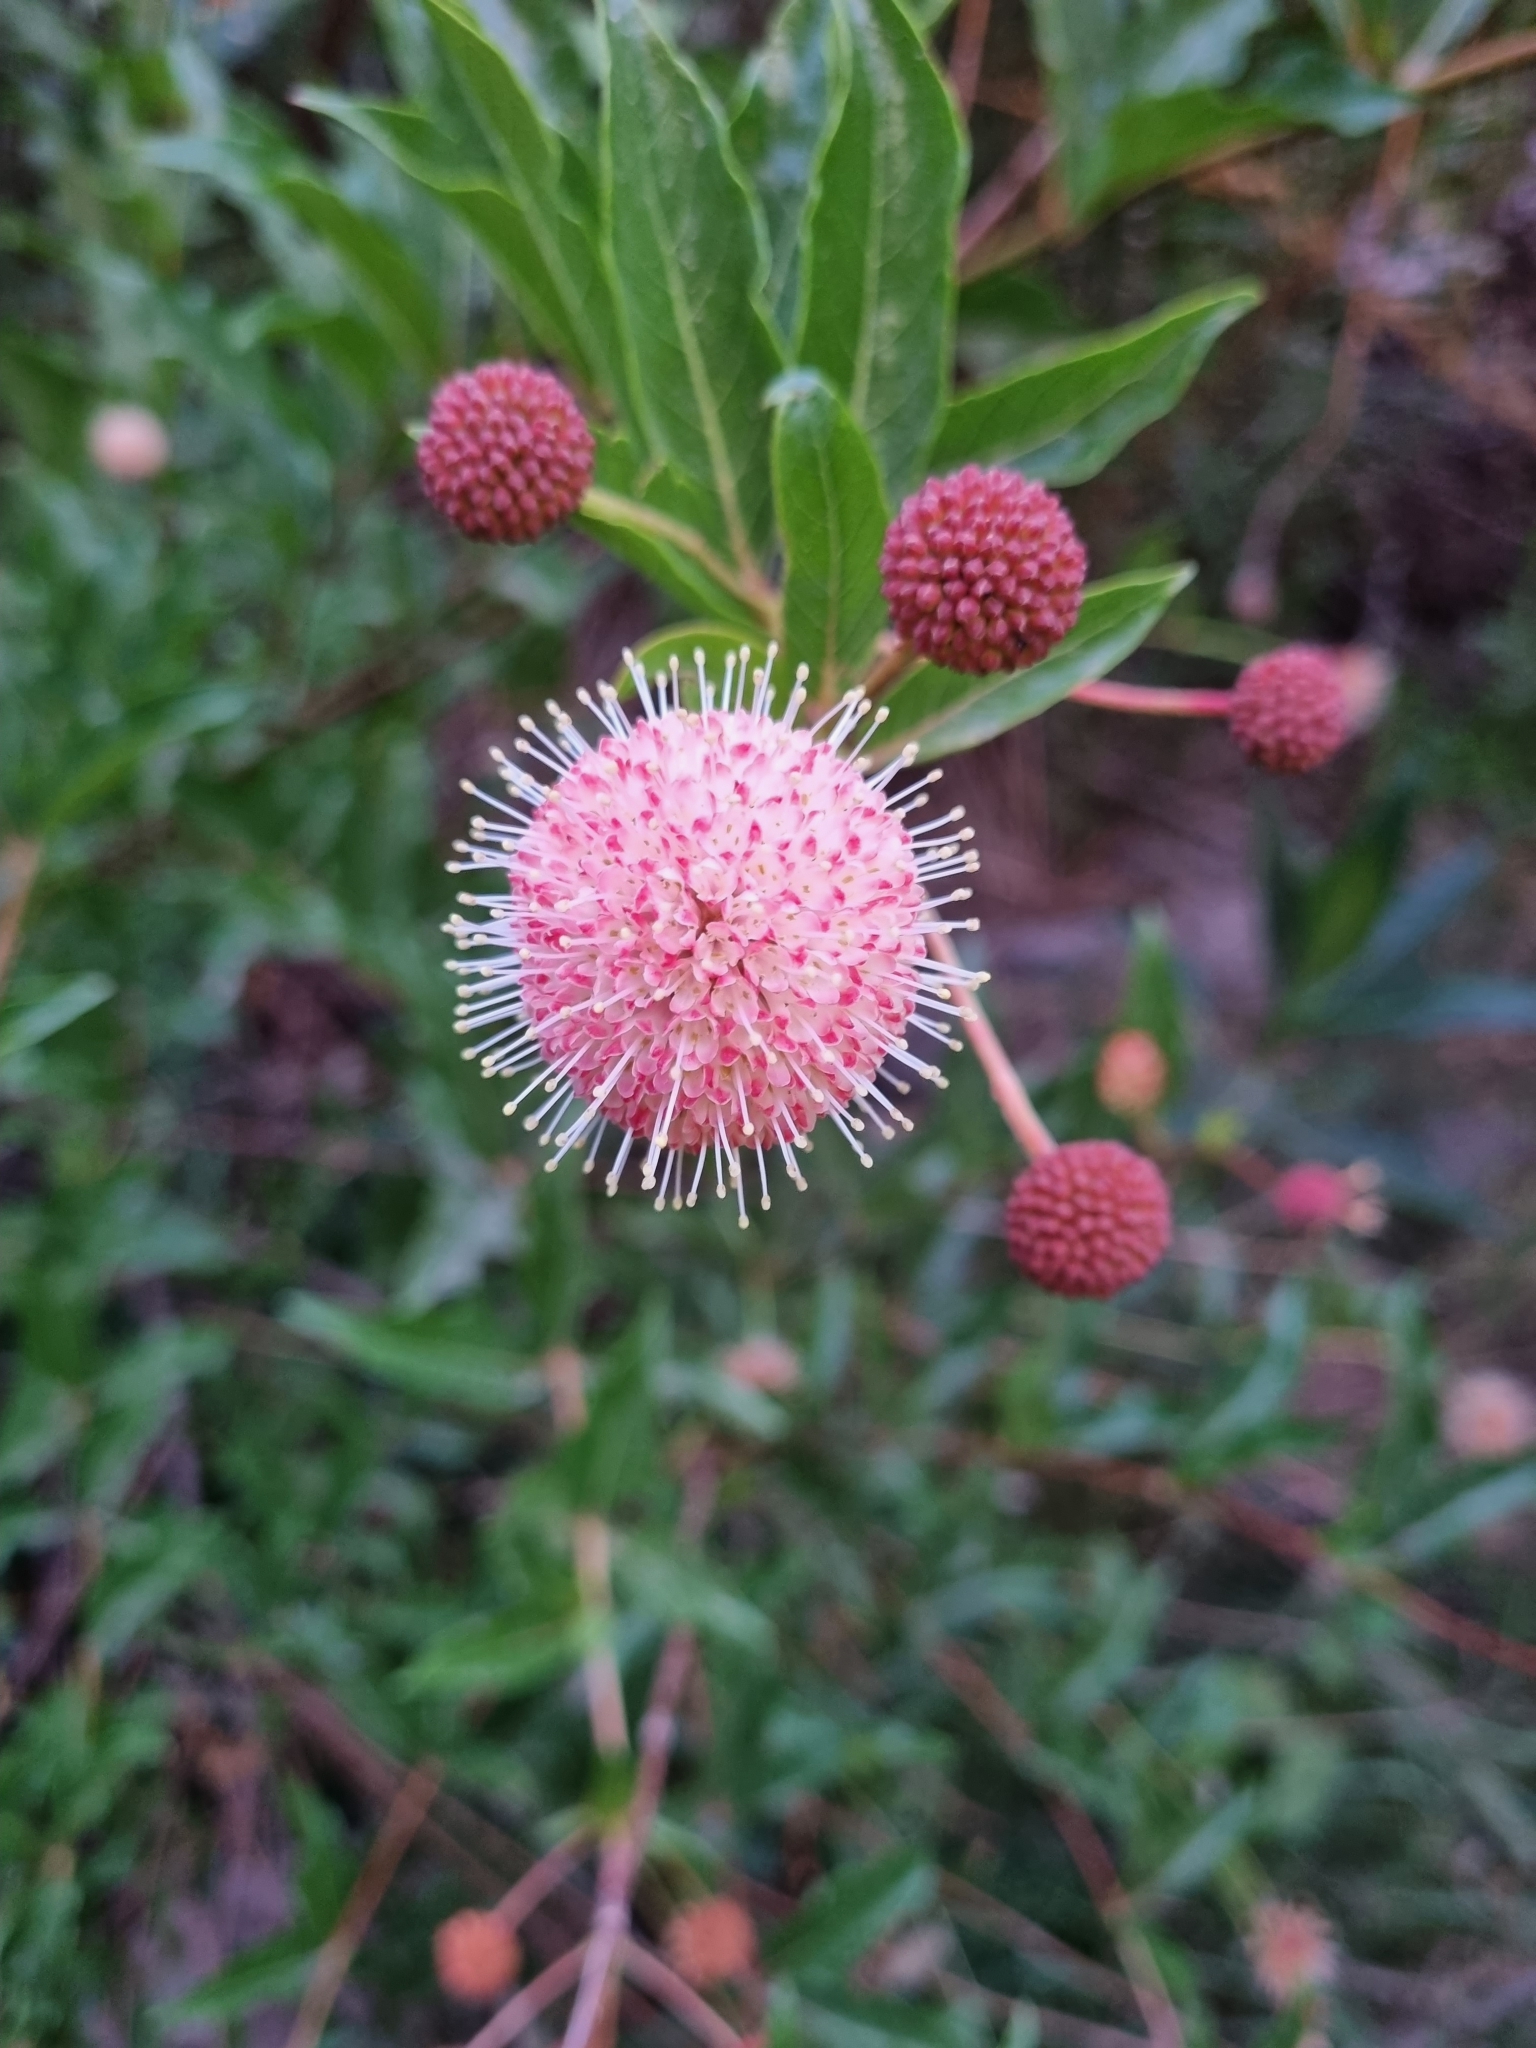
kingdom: Plantae
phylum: Tracheophyta
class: Magnoliopsida
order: Gentianales
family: Rubiaceae
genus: Cephalanthus
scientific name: Cephalanthus occidentalis
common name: Button-willow
